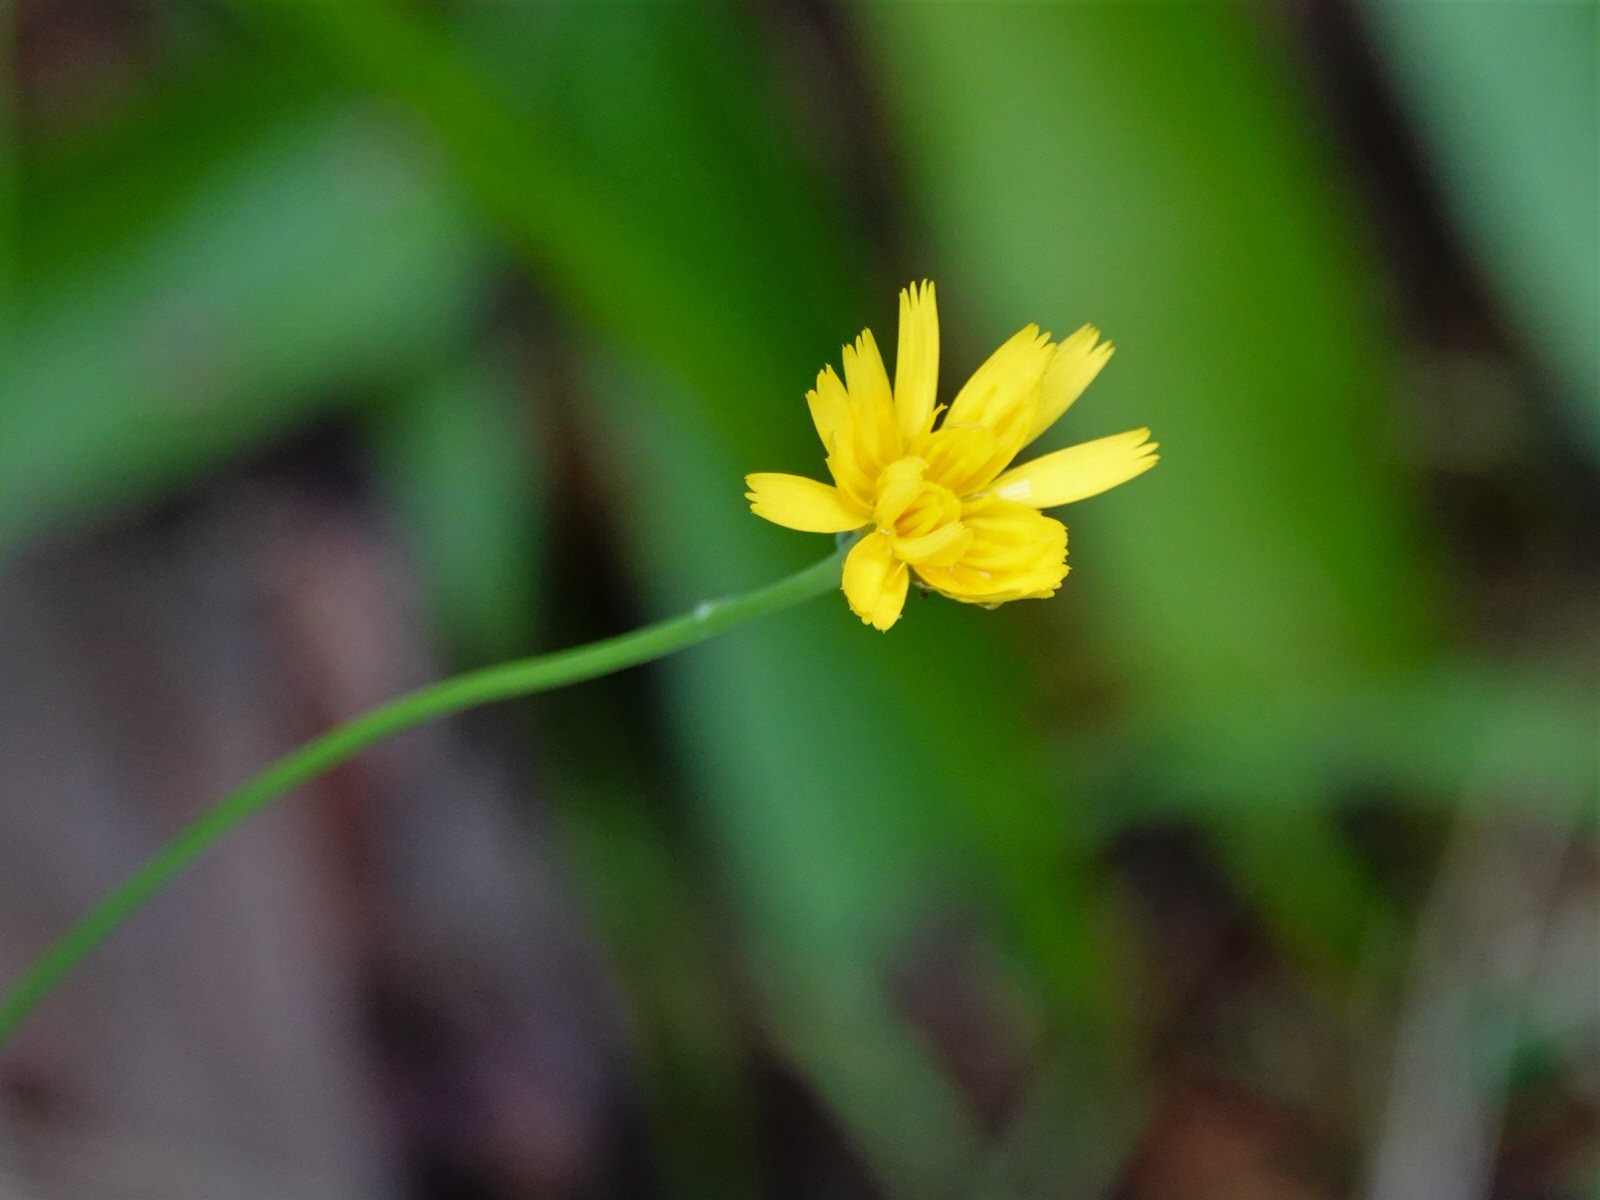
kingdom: Plantae
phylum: Tracheophyta
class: Magnoliopsida
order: Asterales
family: Asteraceae
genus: Hypochaeris
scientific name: Hypochaeris radicata
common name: Flatweed
